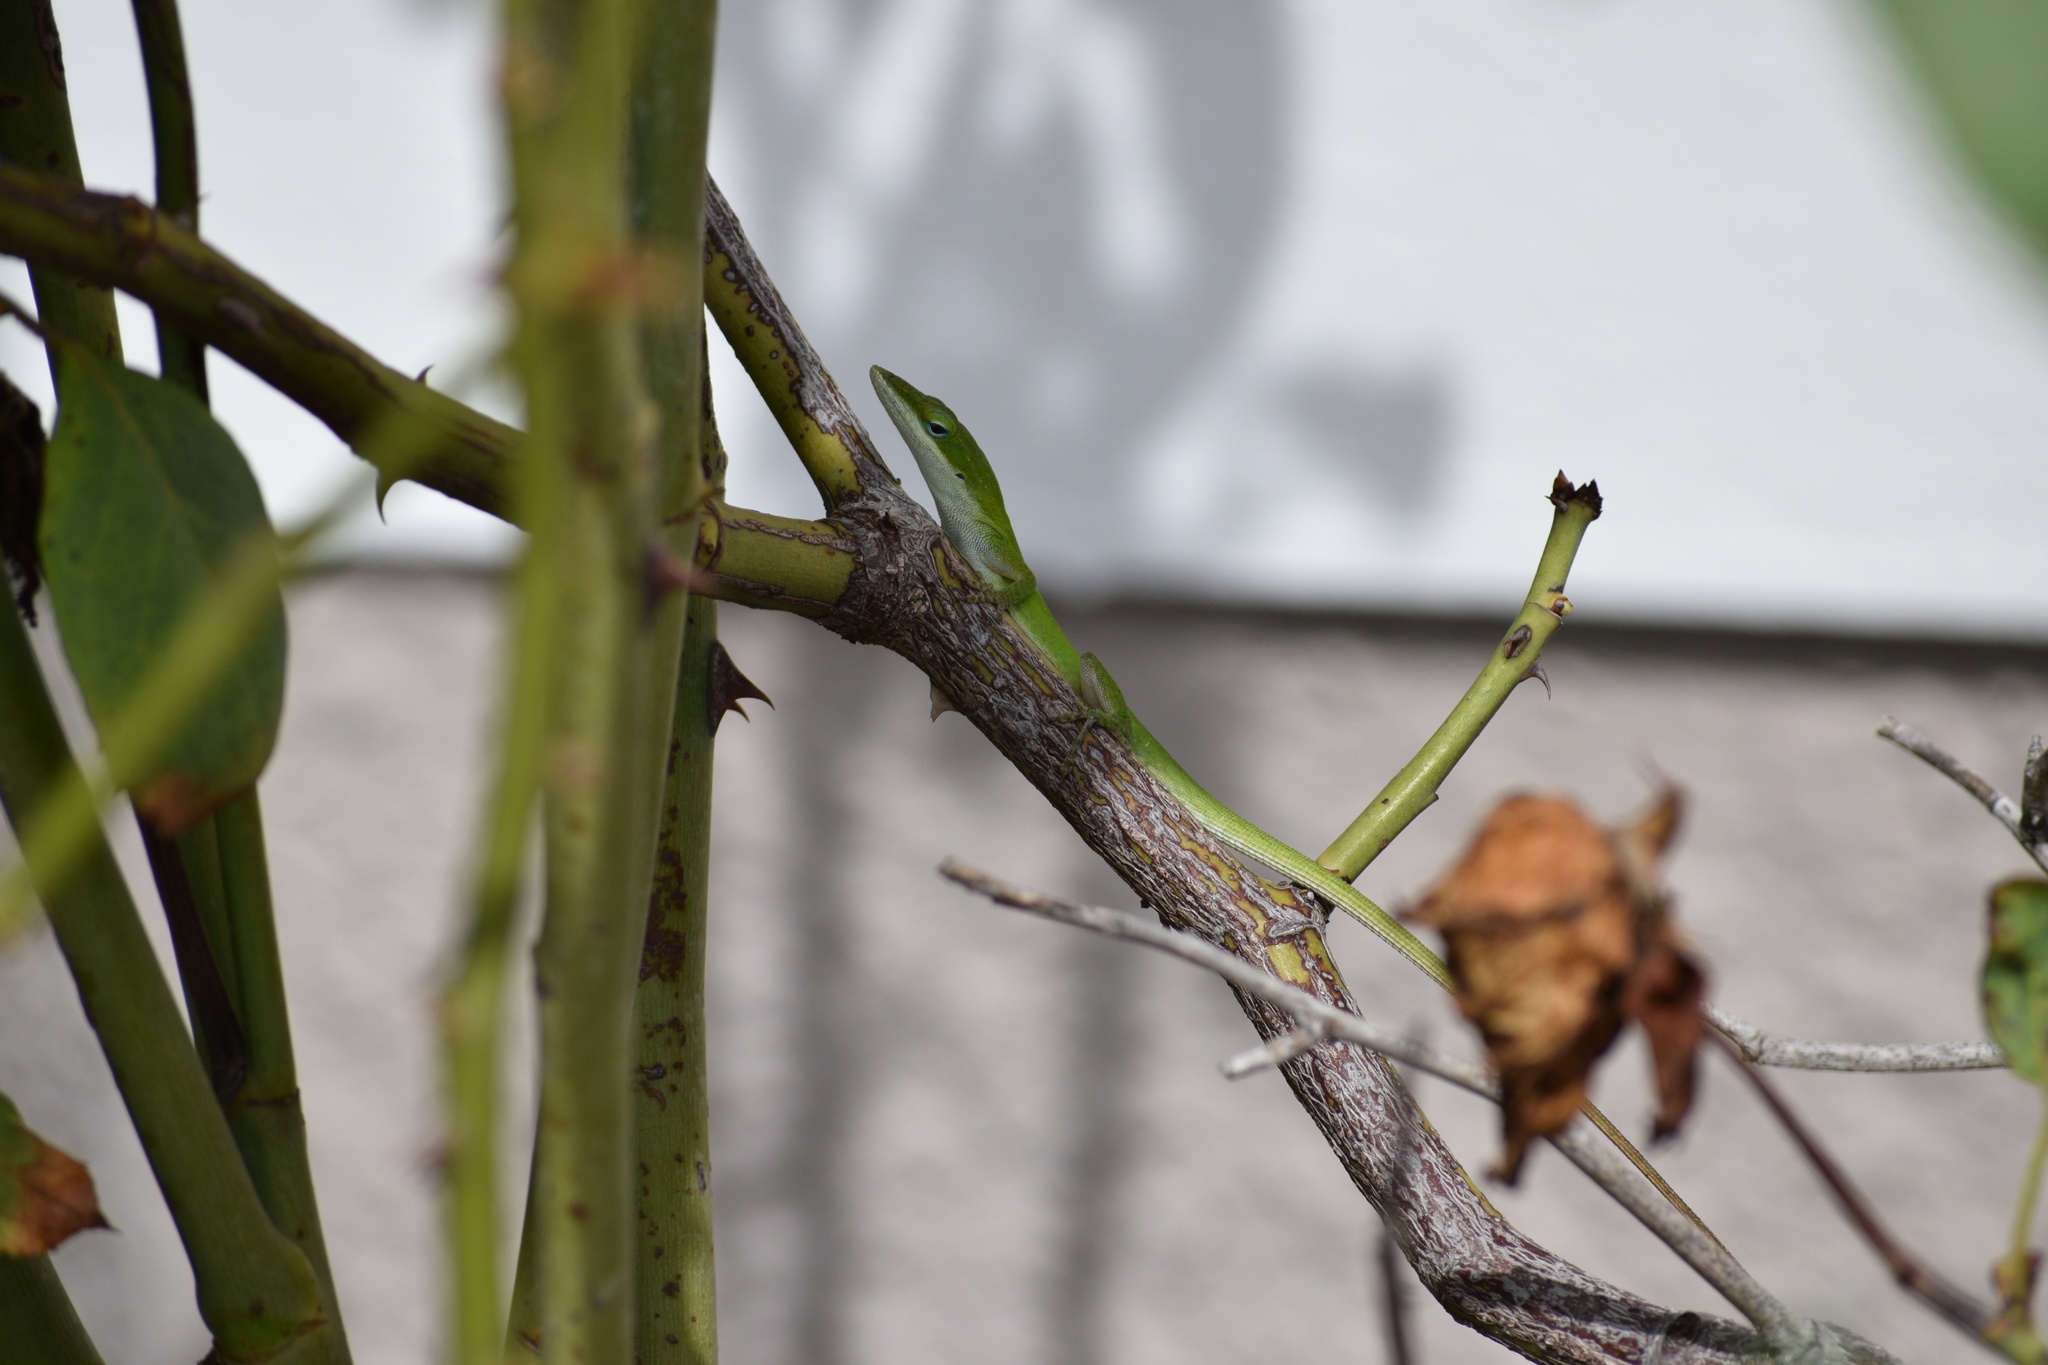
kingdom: Animalia
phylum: Chordata
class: Squamata
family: Dactyloidae
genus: Anolis
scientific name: Anolis carolinensis
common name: Green anole
